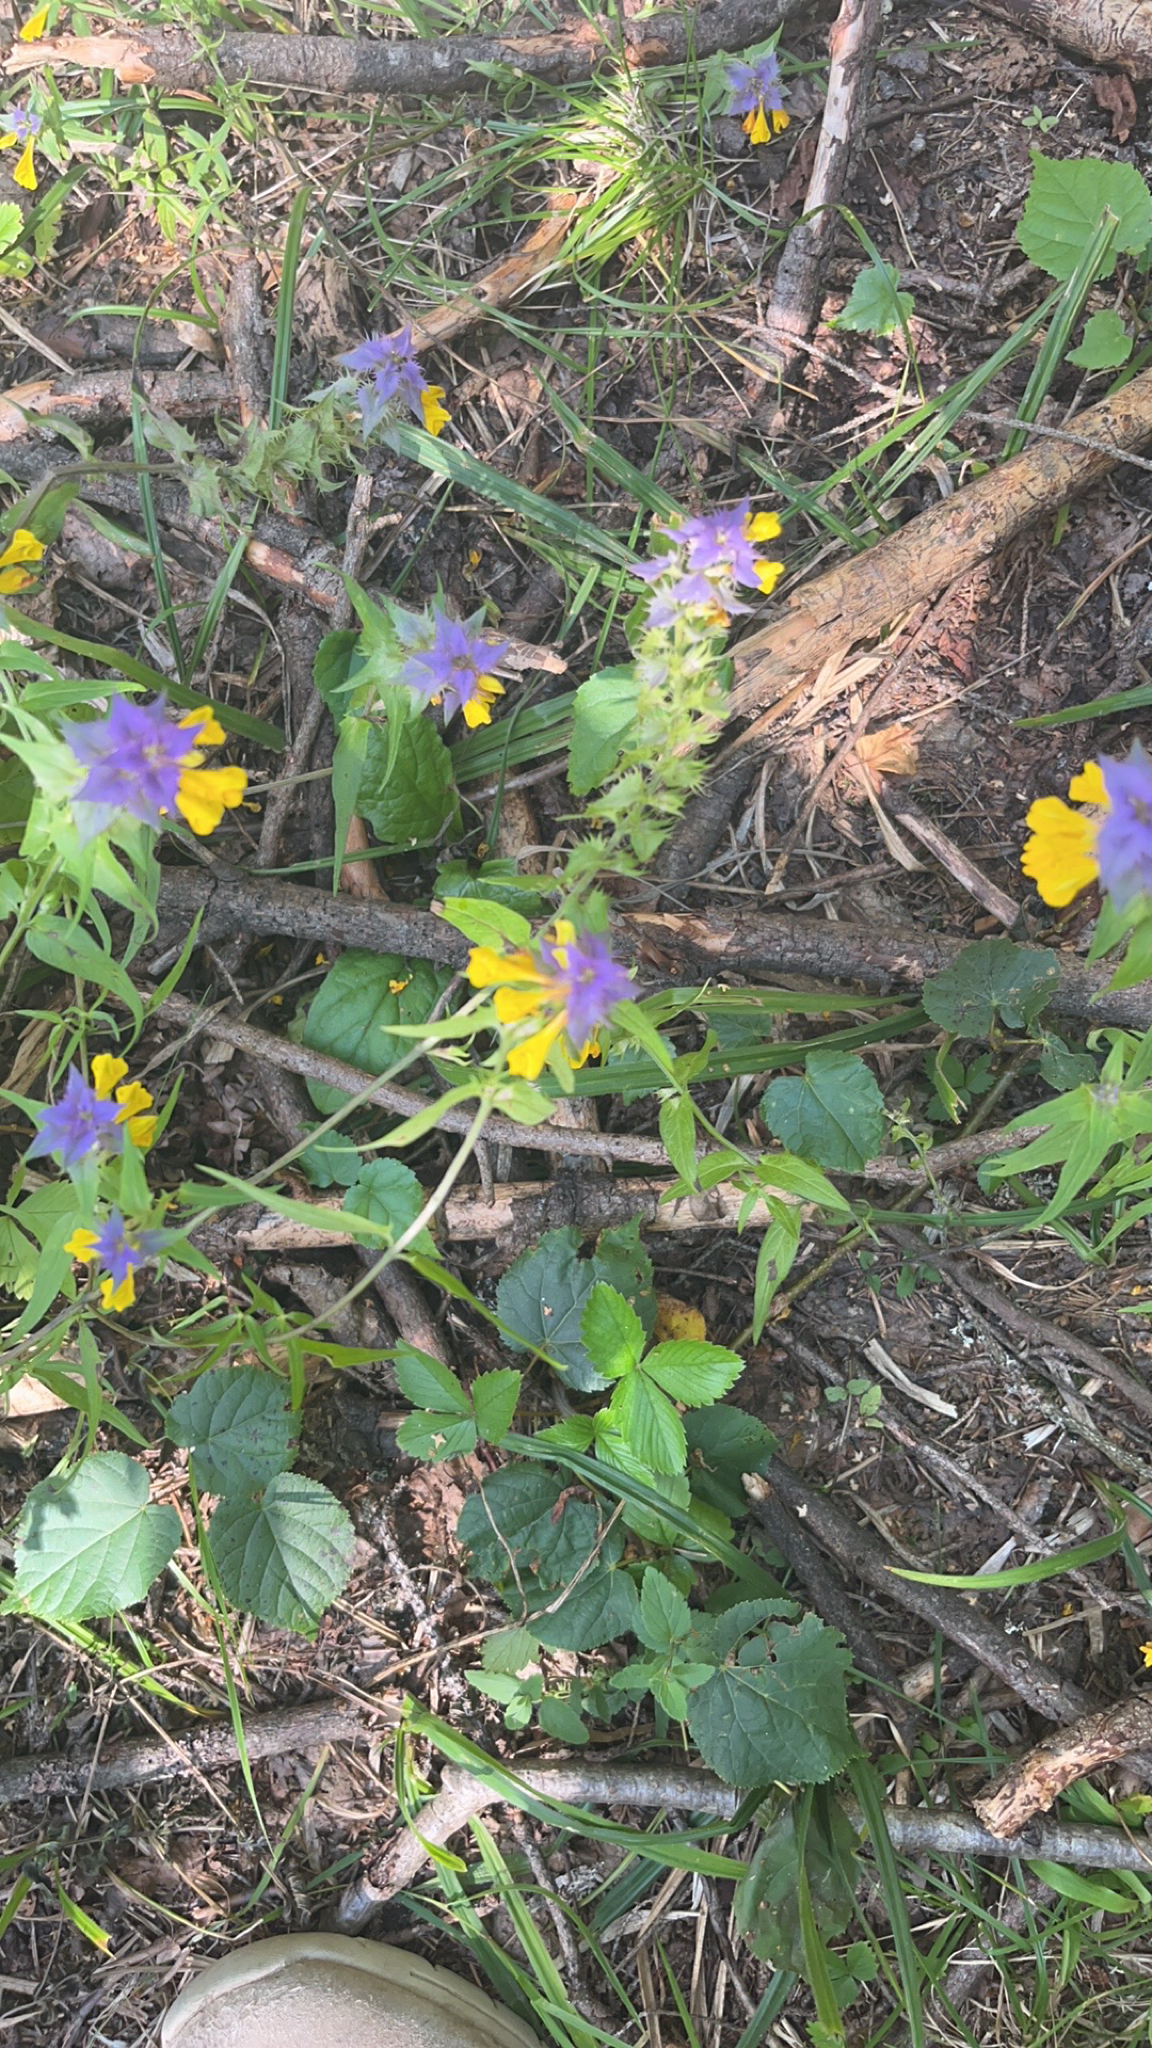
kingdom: Plantae
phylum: Tracheophyta
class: Magnoliopsida
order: Lamiales
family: Orobanchaceae
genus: Melampyrum
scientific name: Melampyrum nemorosum
